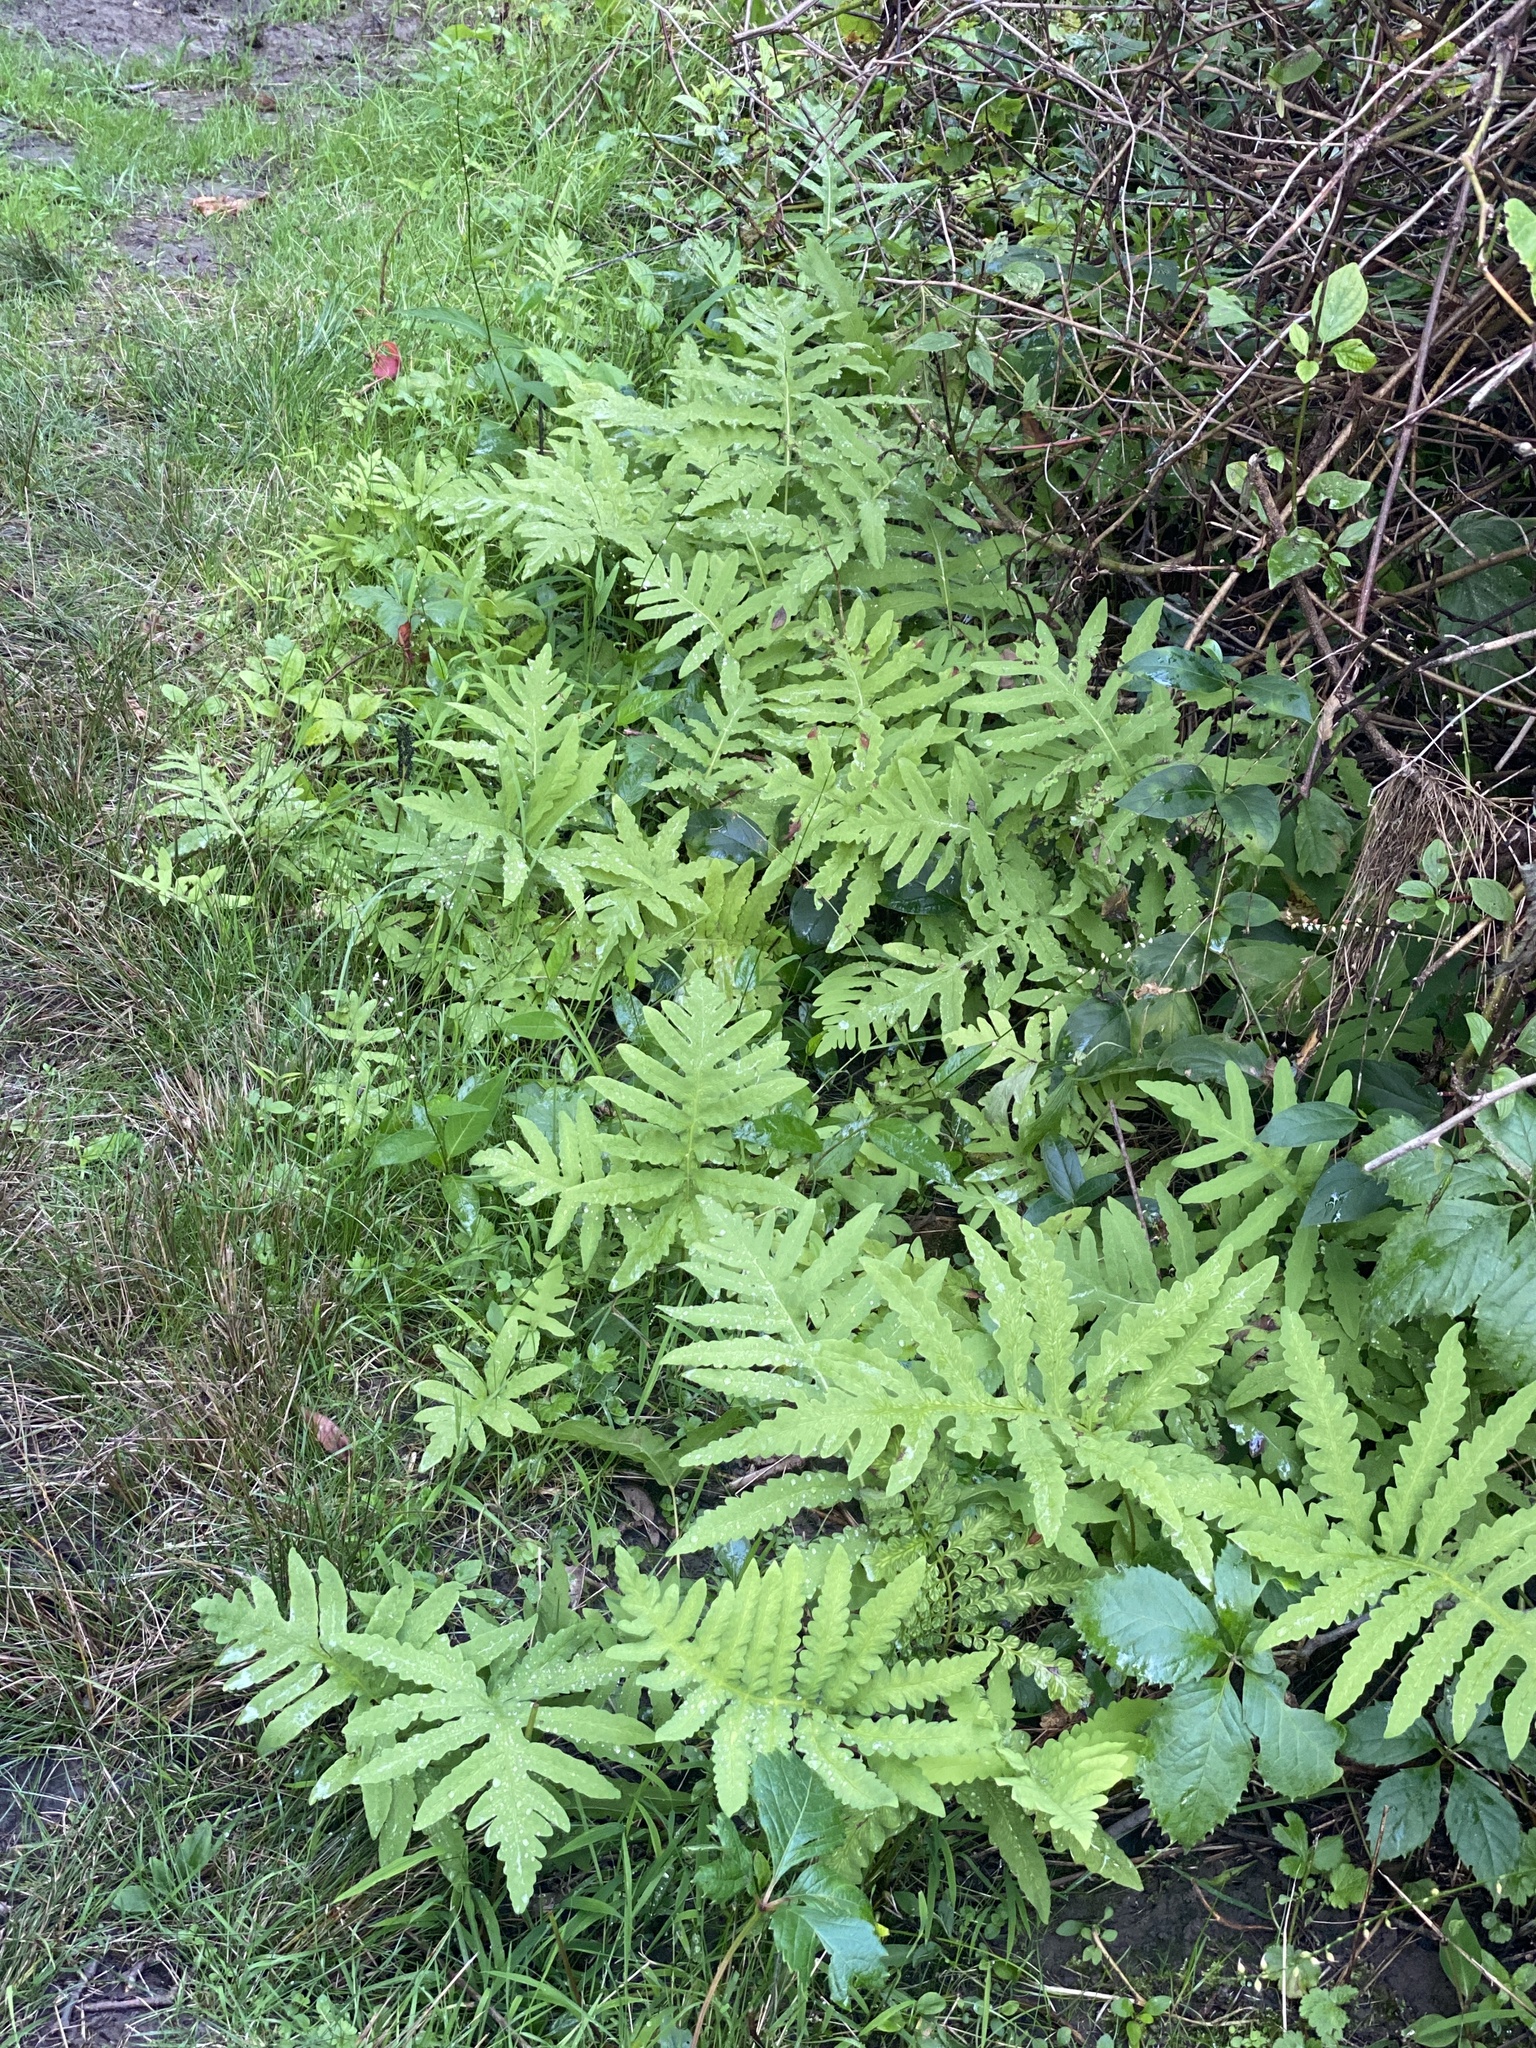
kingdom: Plantae
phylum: Tracheophyta
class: Polypodiopsida
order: Polypodiales
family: Onocleaceae
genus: Onoclea
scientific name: Onoclea sensibilis
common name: Sensitive fern
